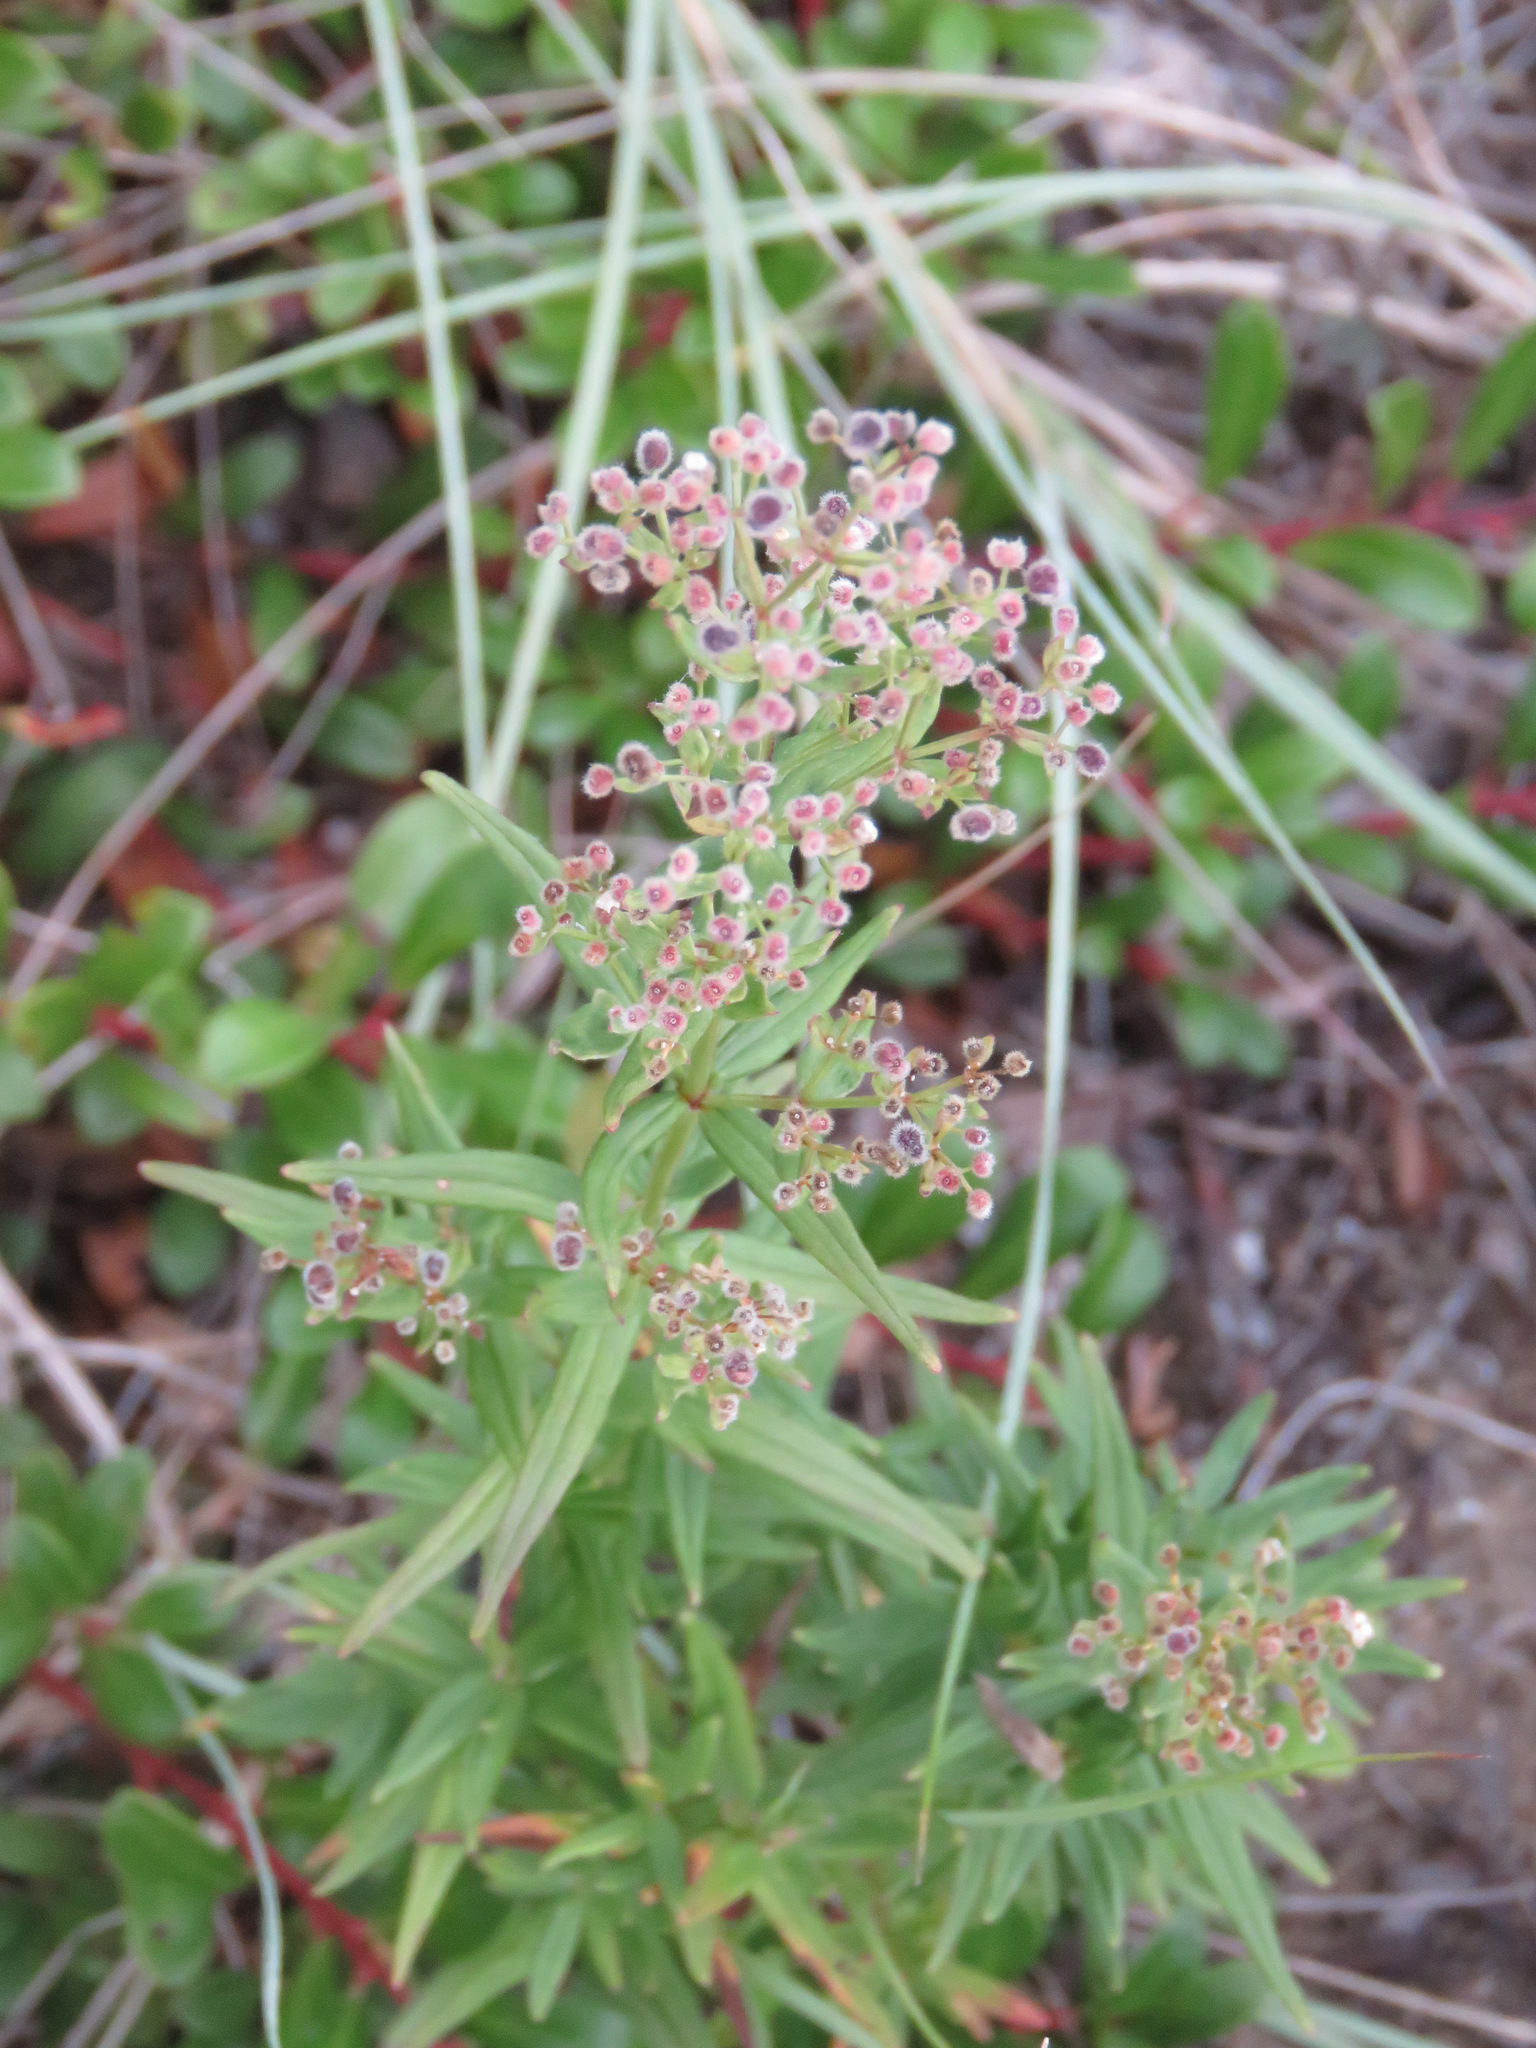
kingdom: Plantae
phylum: Tracheophyta
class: Magnoliopsida
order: Gentianales
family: Rubiaceae
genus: Galium
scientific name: Galium boreale
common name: Northern bedstraw
